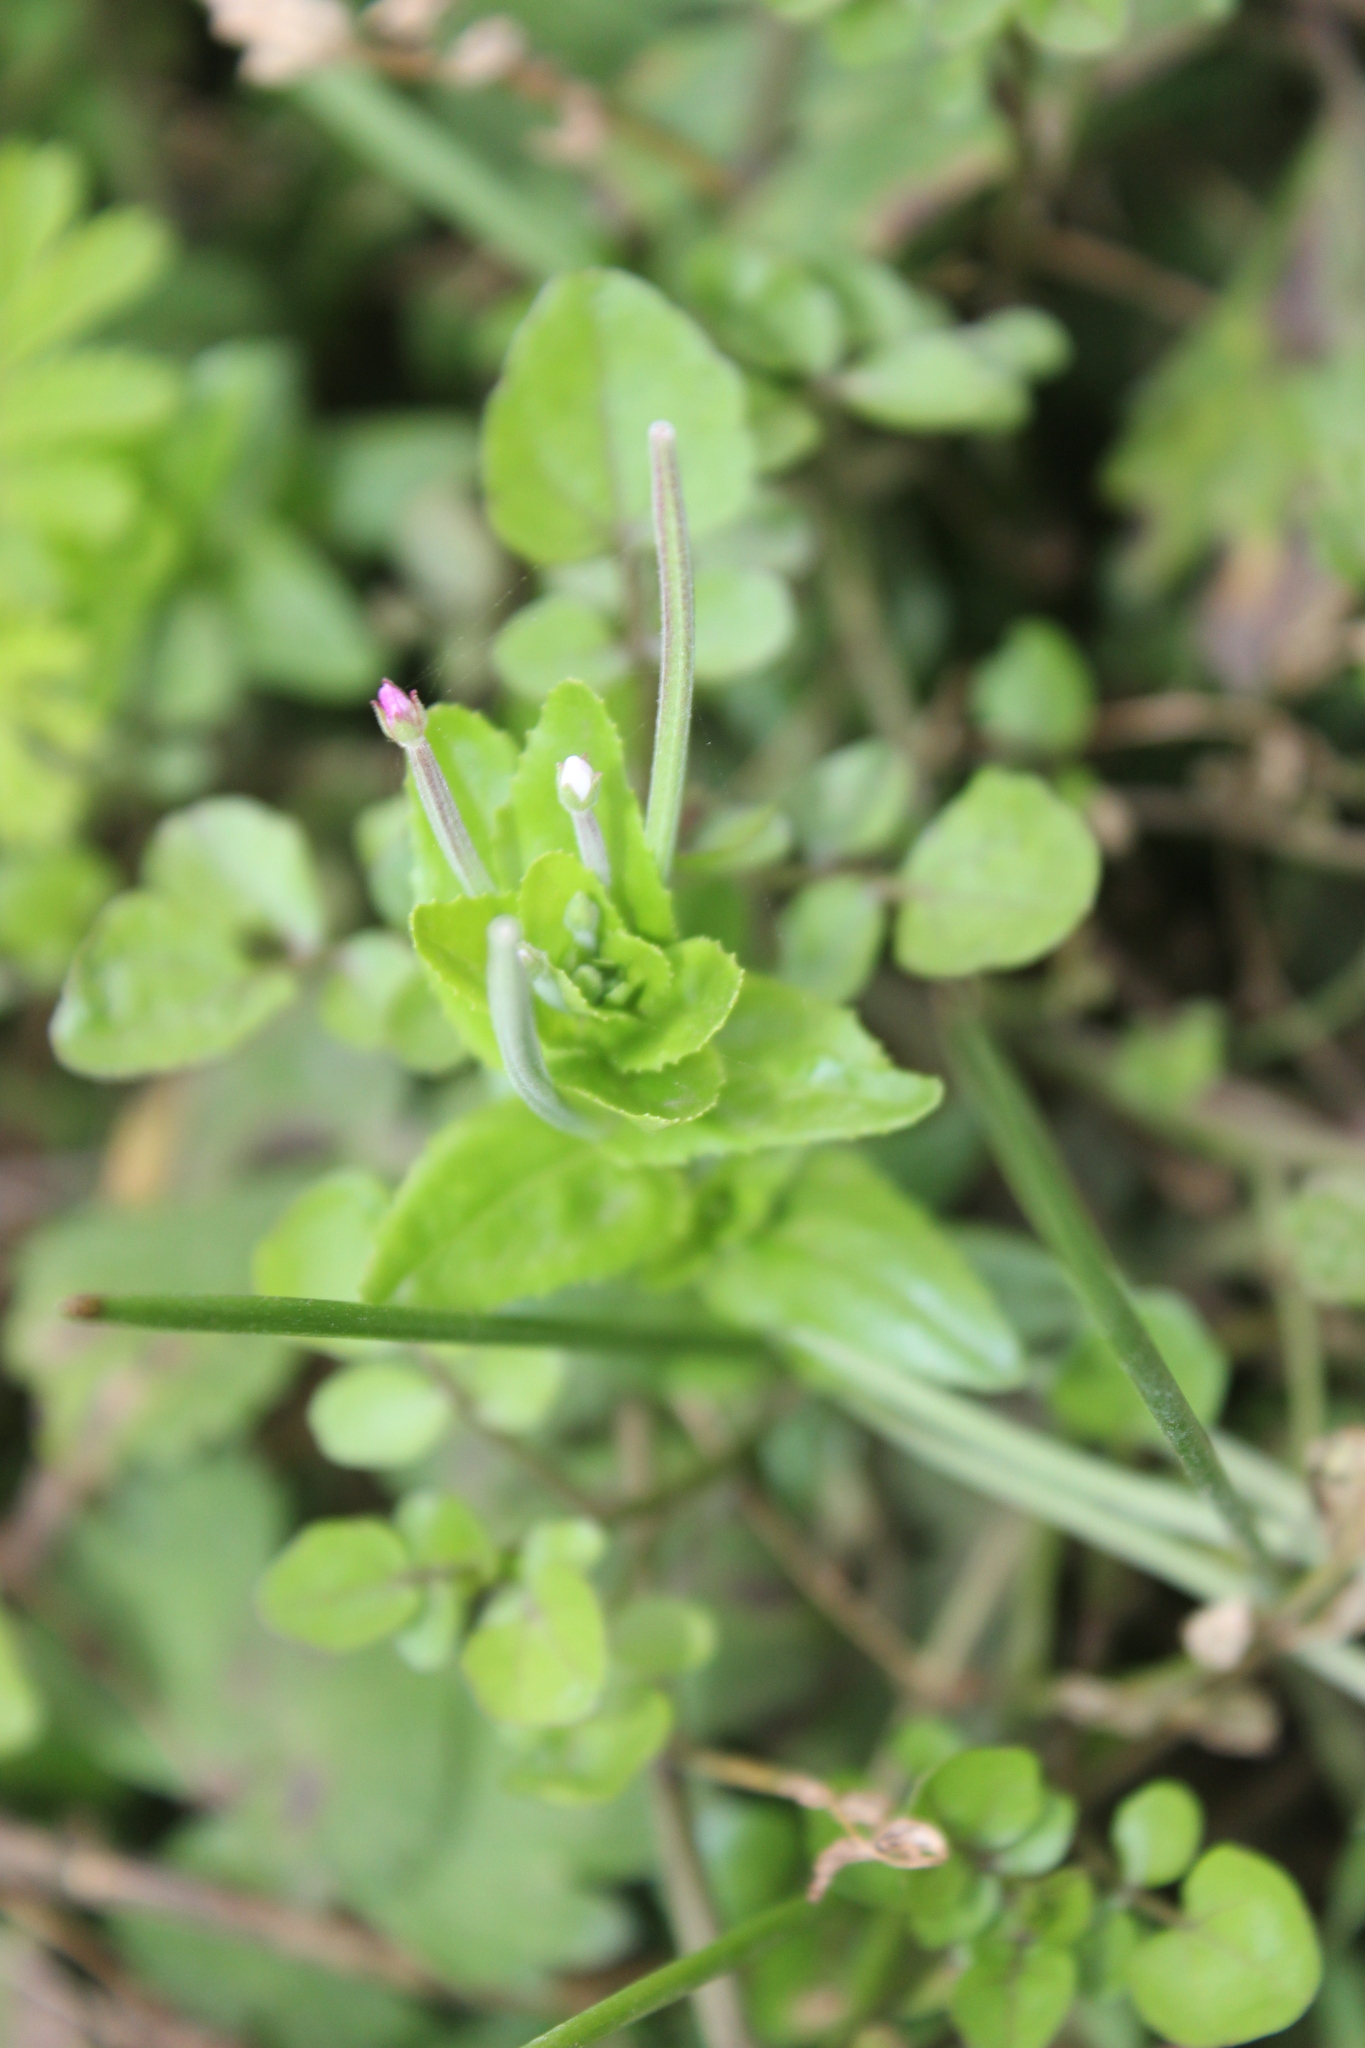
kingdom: Plantae
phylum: Tracheophyta
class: Magnoliopsida
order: Myrtales
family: Onagraceae
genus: Epilobium
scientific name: Epilobium billardierianum
